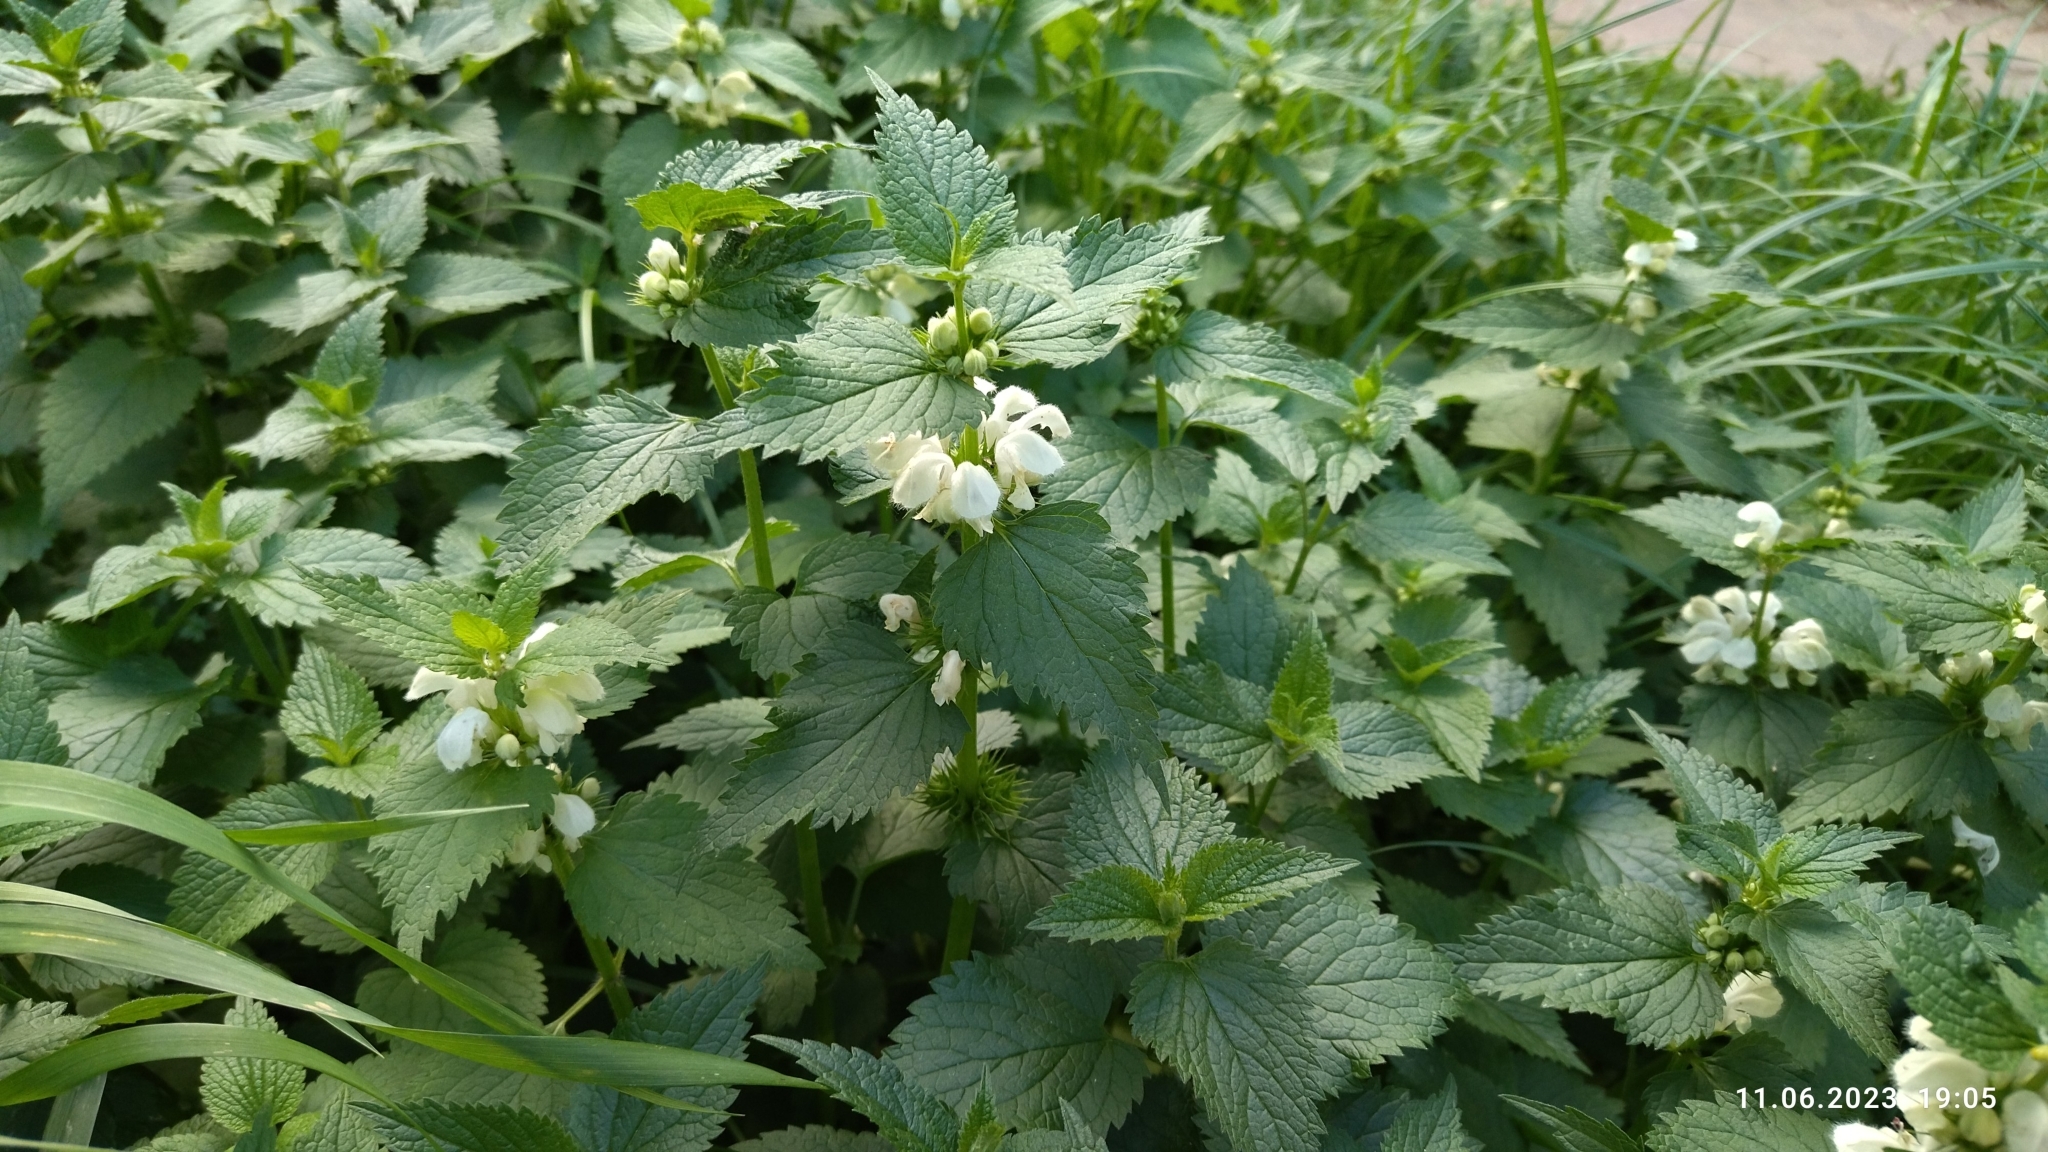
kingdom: Plantae
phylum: Tracheophyta
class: Magnoliopsida
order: Lamiales
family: Lamiaceae
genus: Lamium
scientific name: Lamium album
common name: White dead-nettle
